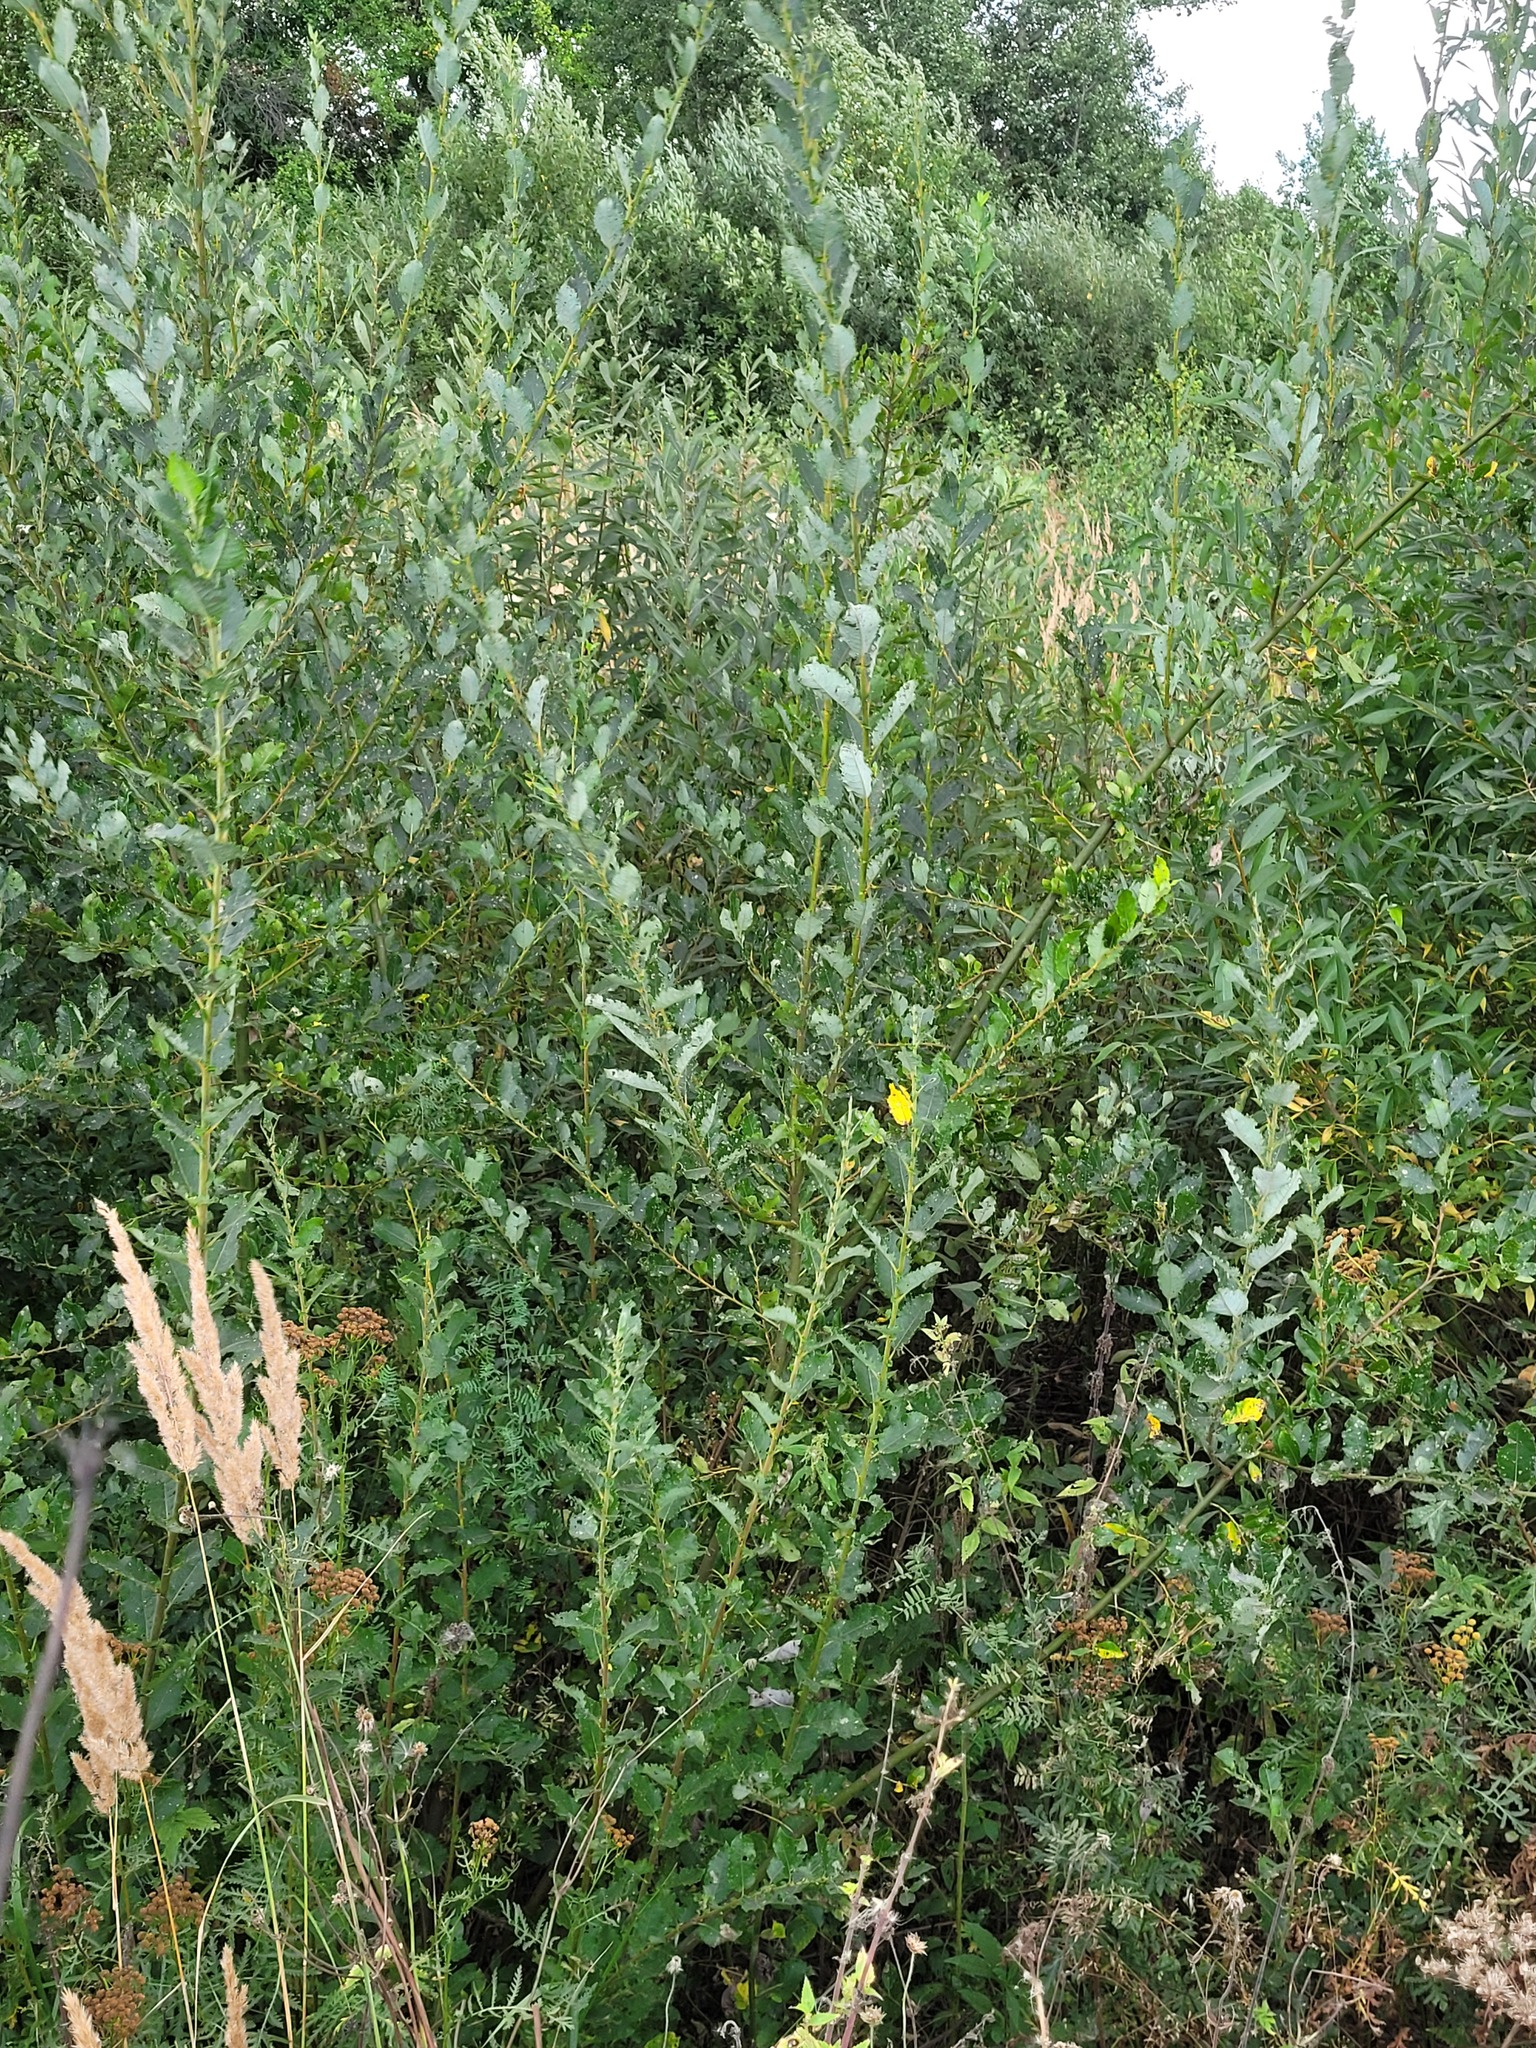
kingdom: Plantae
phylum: Tracheophyta
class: Magnoliopsida
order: Malpighiales
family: Salicaceae
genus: Salix
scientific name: Salix myrsinifolia
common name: Dark-leaved willow
